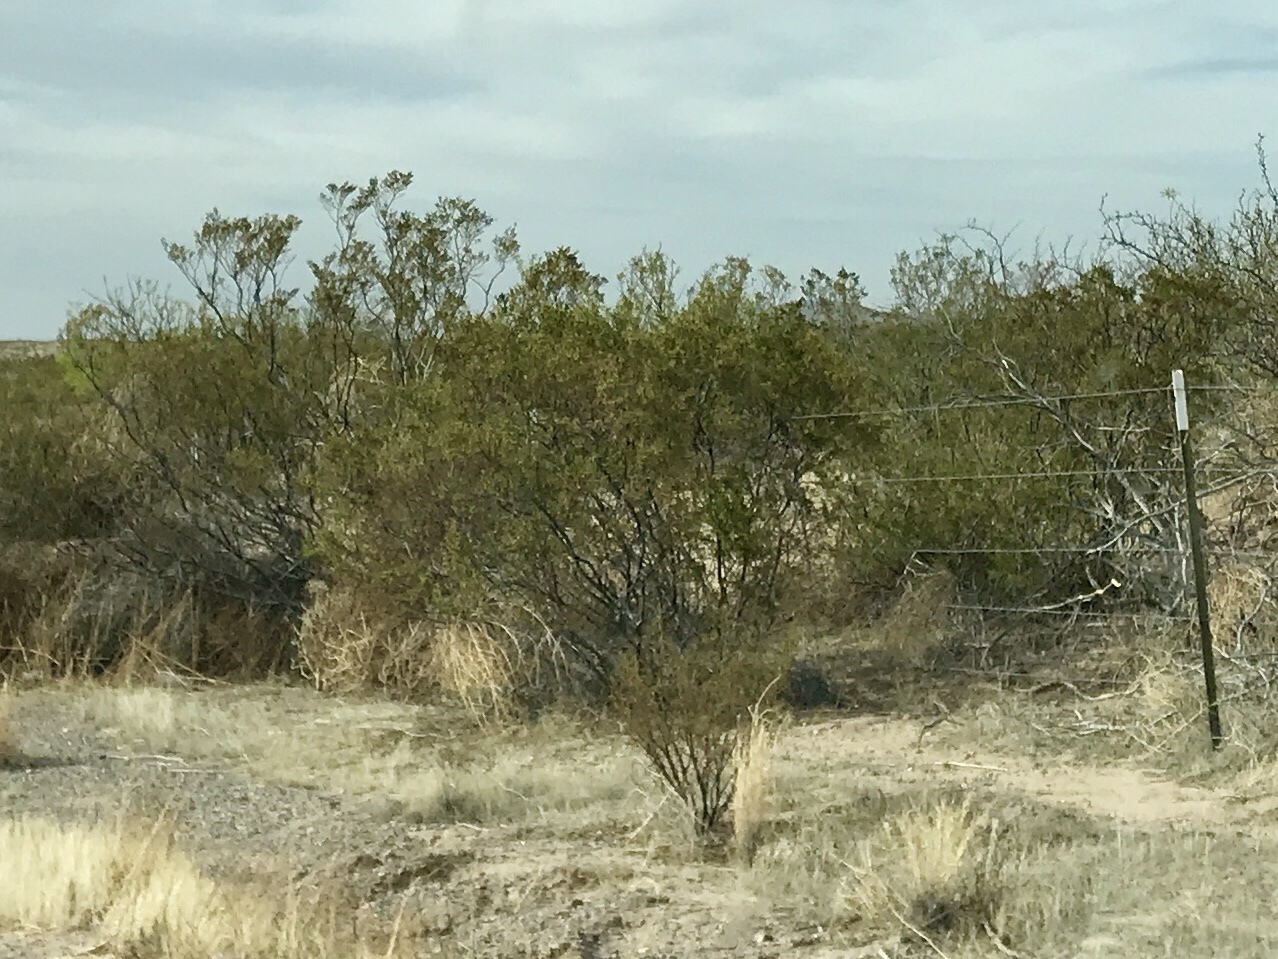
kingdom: Plantae
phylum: Tracheophyta
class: Magnoliopsida
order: Zygophyllales
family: Zygophyllaceae
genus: Larrea
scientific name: Larrea tridentata
